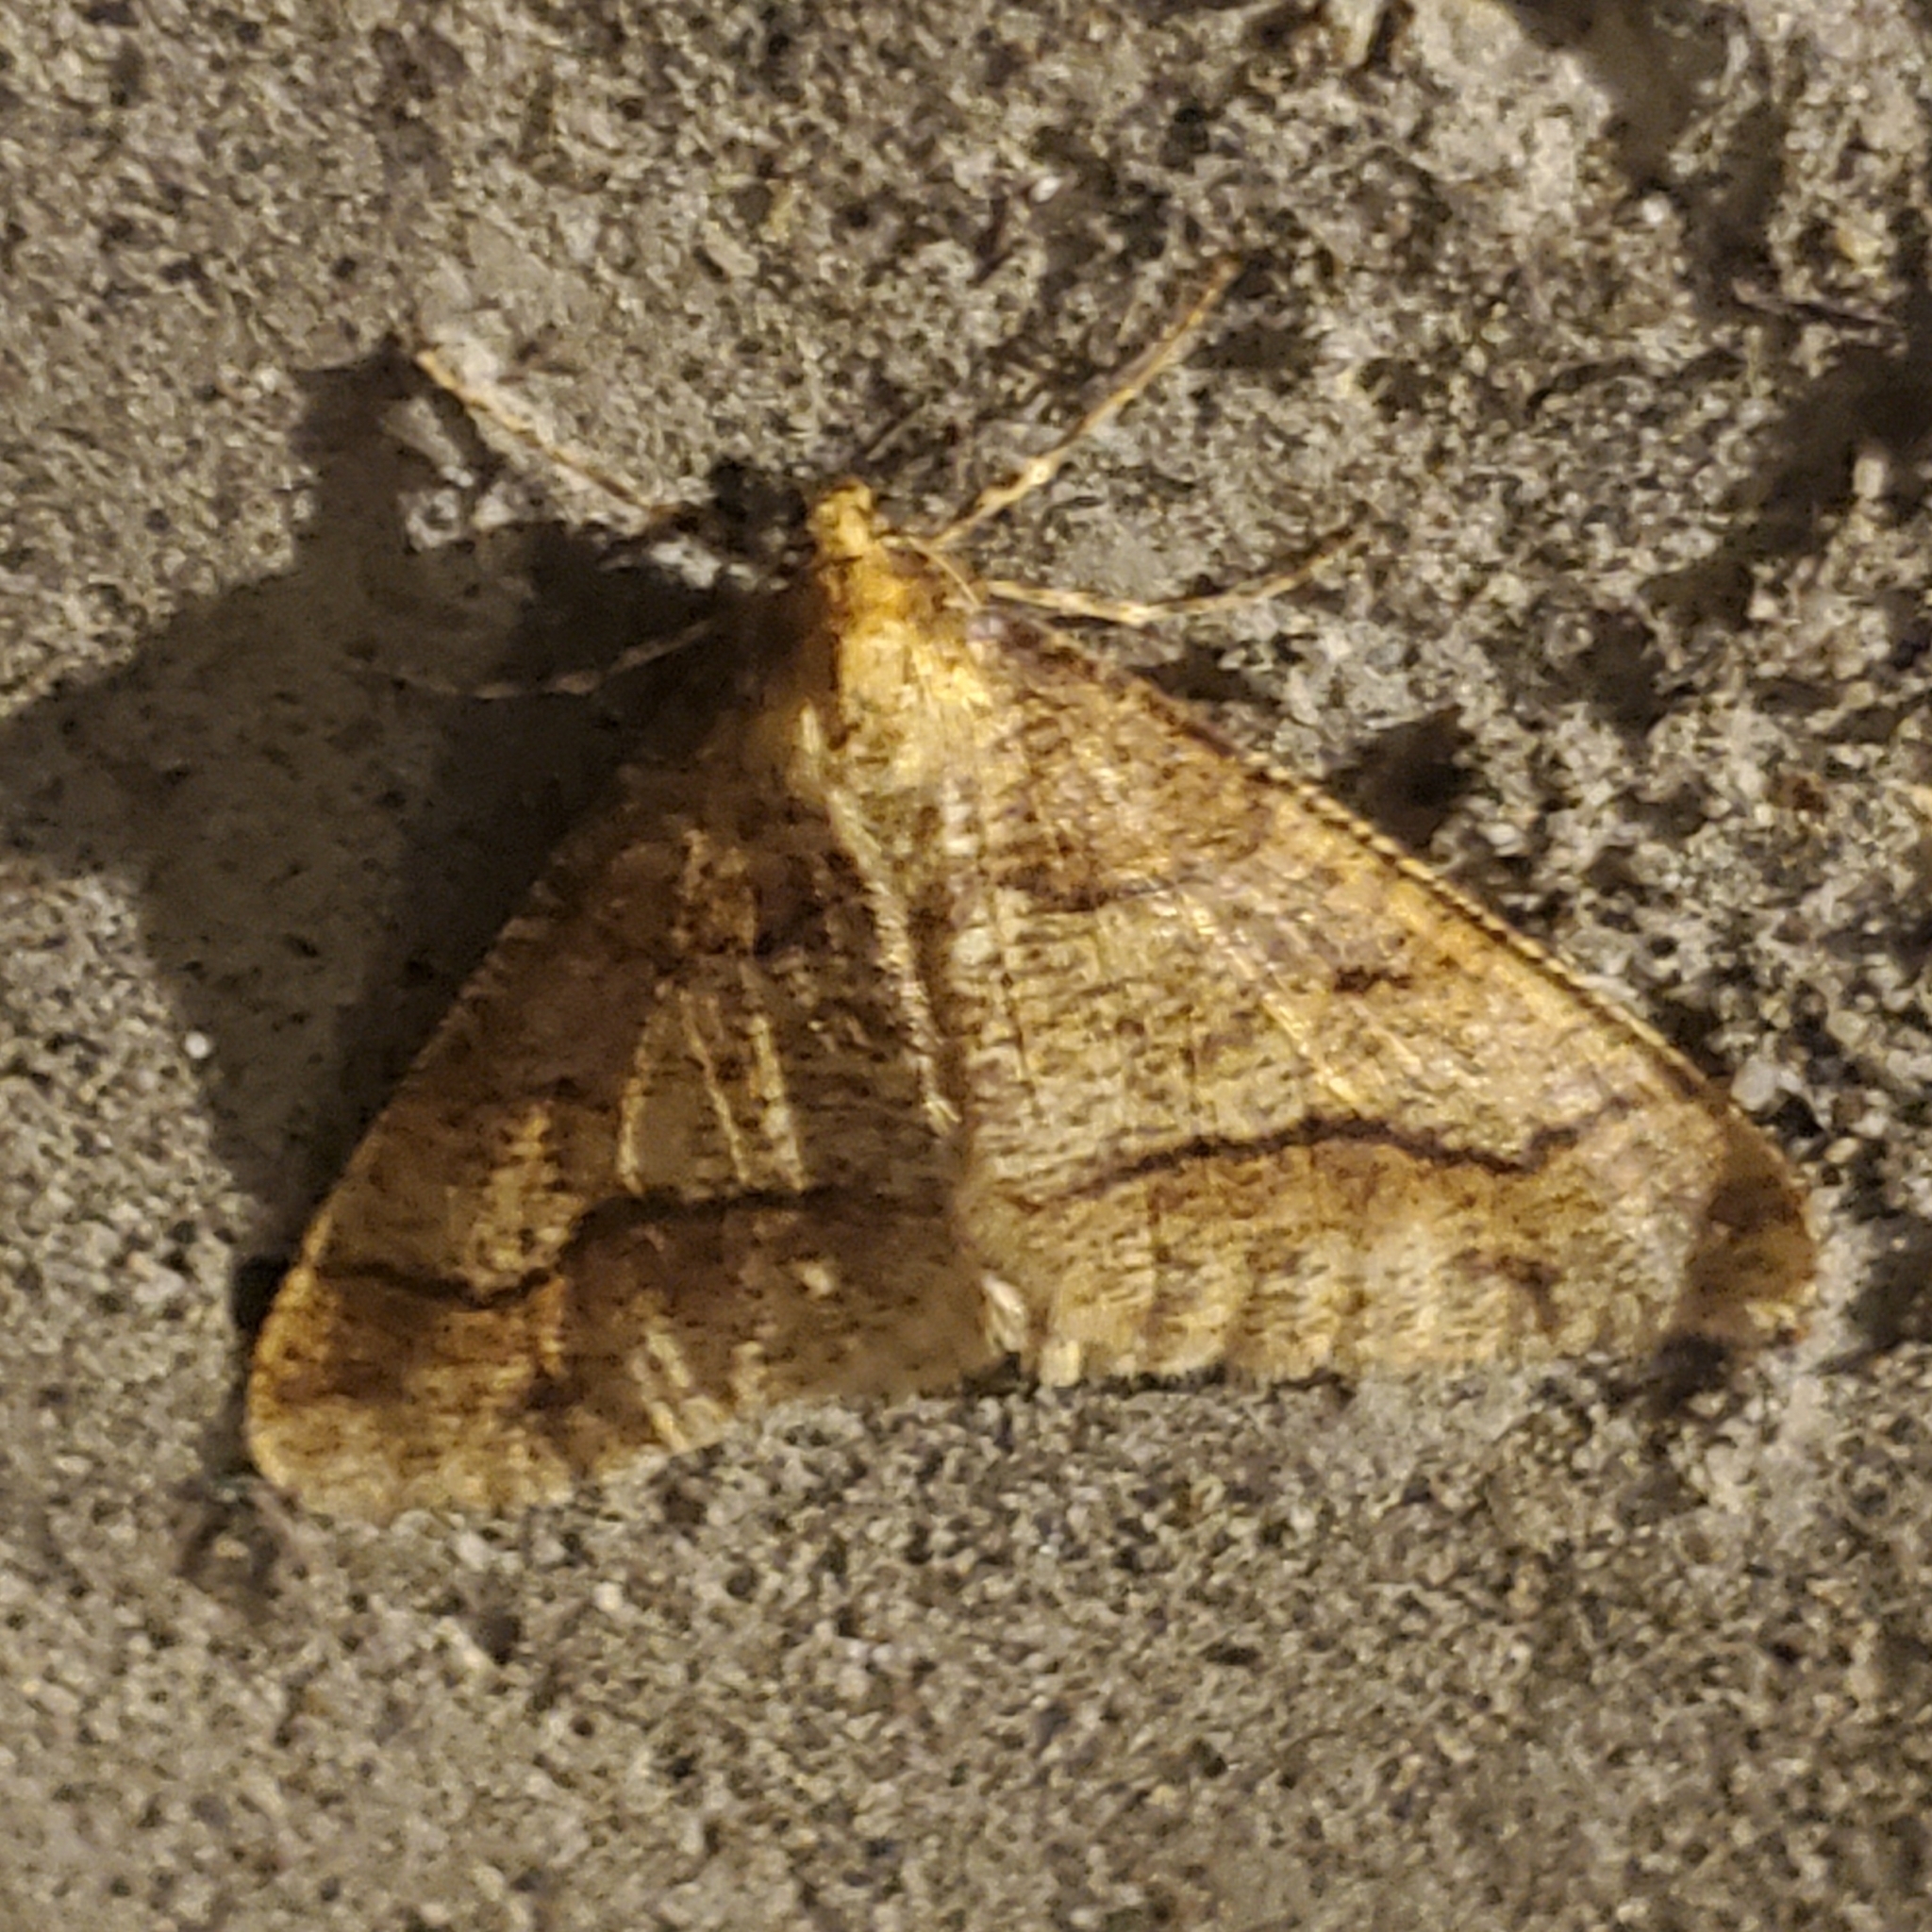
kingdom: Animalia
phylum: Arthropoda
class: Insecta
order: Lepidoptera
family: Geometridae
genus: Erannis
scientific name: Erannis tiliaria
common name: Linden looper
